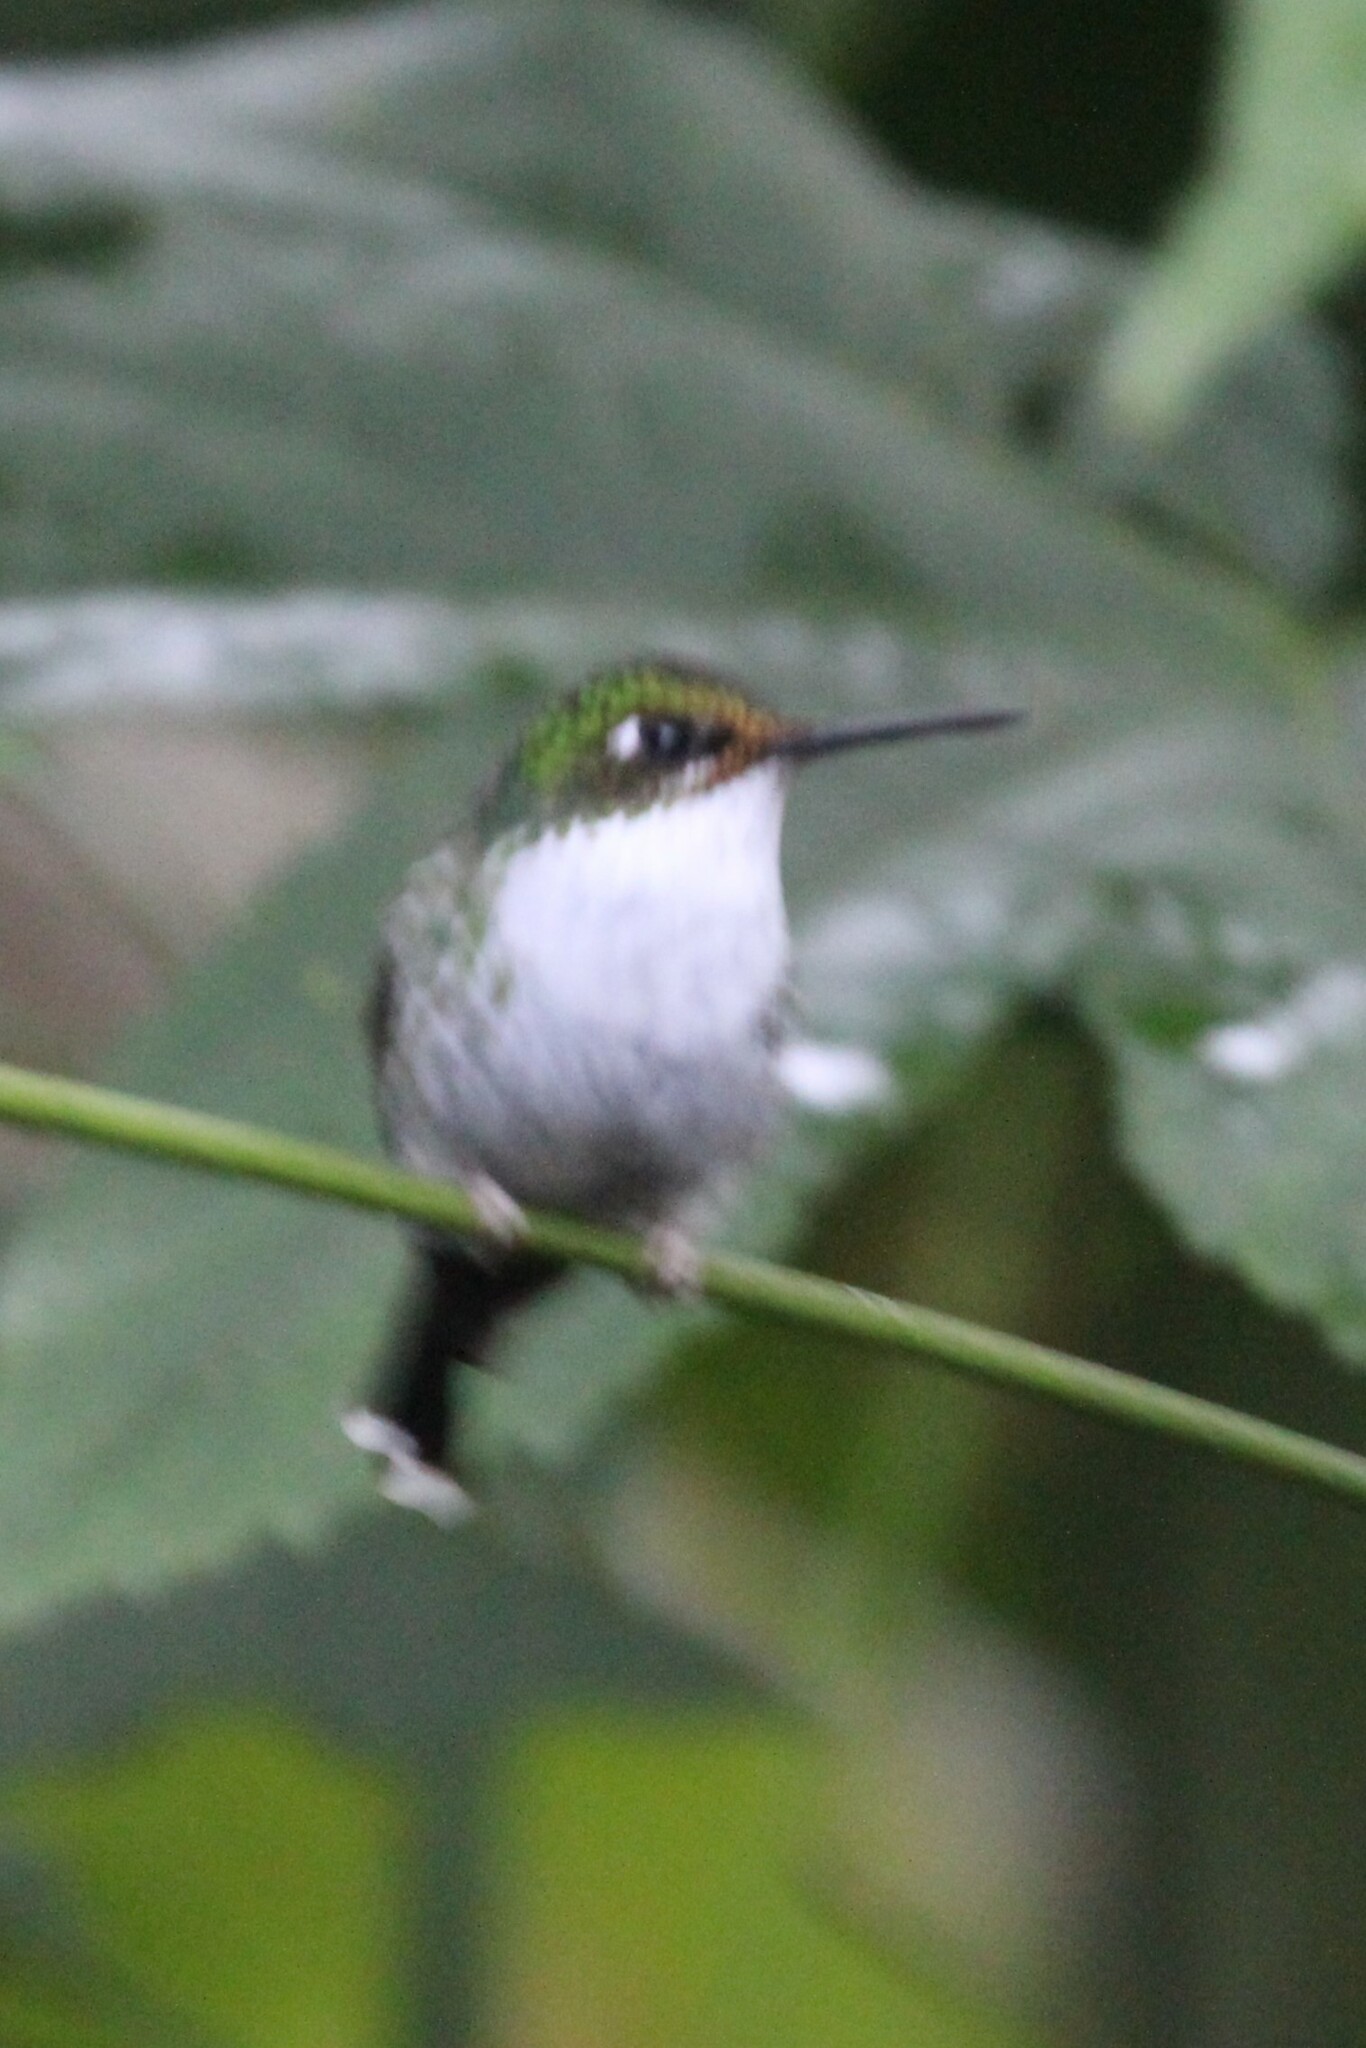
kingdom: Animalia
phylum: Chordata
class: Aves
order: Apodiformes
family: Trochilidae
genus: Ocreatus
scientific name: Ocreatus underwoodii
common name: Booted racket-tail
